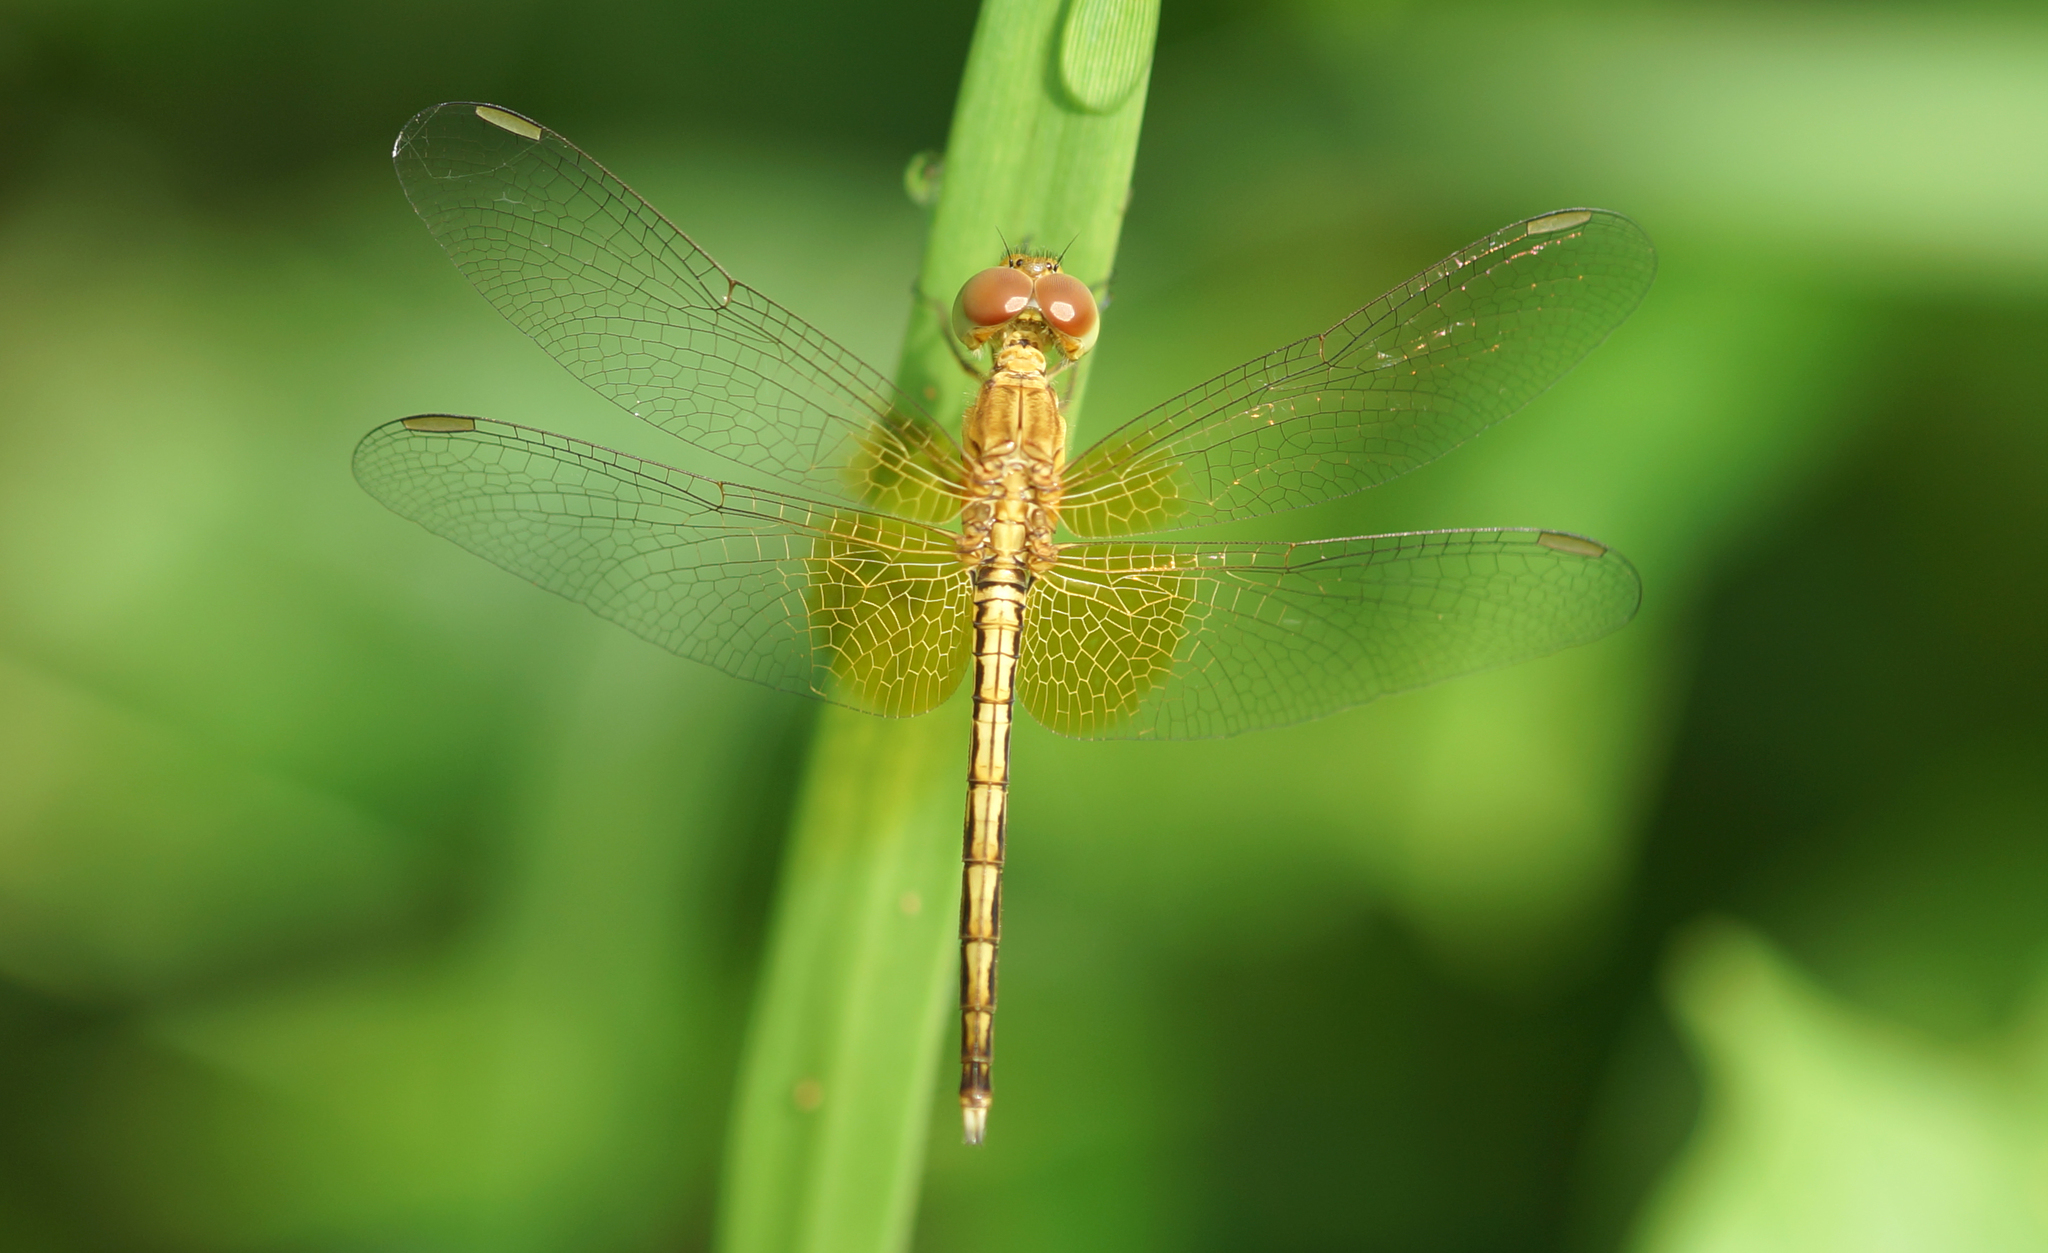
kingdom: Animalia
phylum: Arthropoda
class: Insecta
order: Odonata
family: Libellulidae
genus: Neurothemis
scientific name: Neurothemis intermedia
